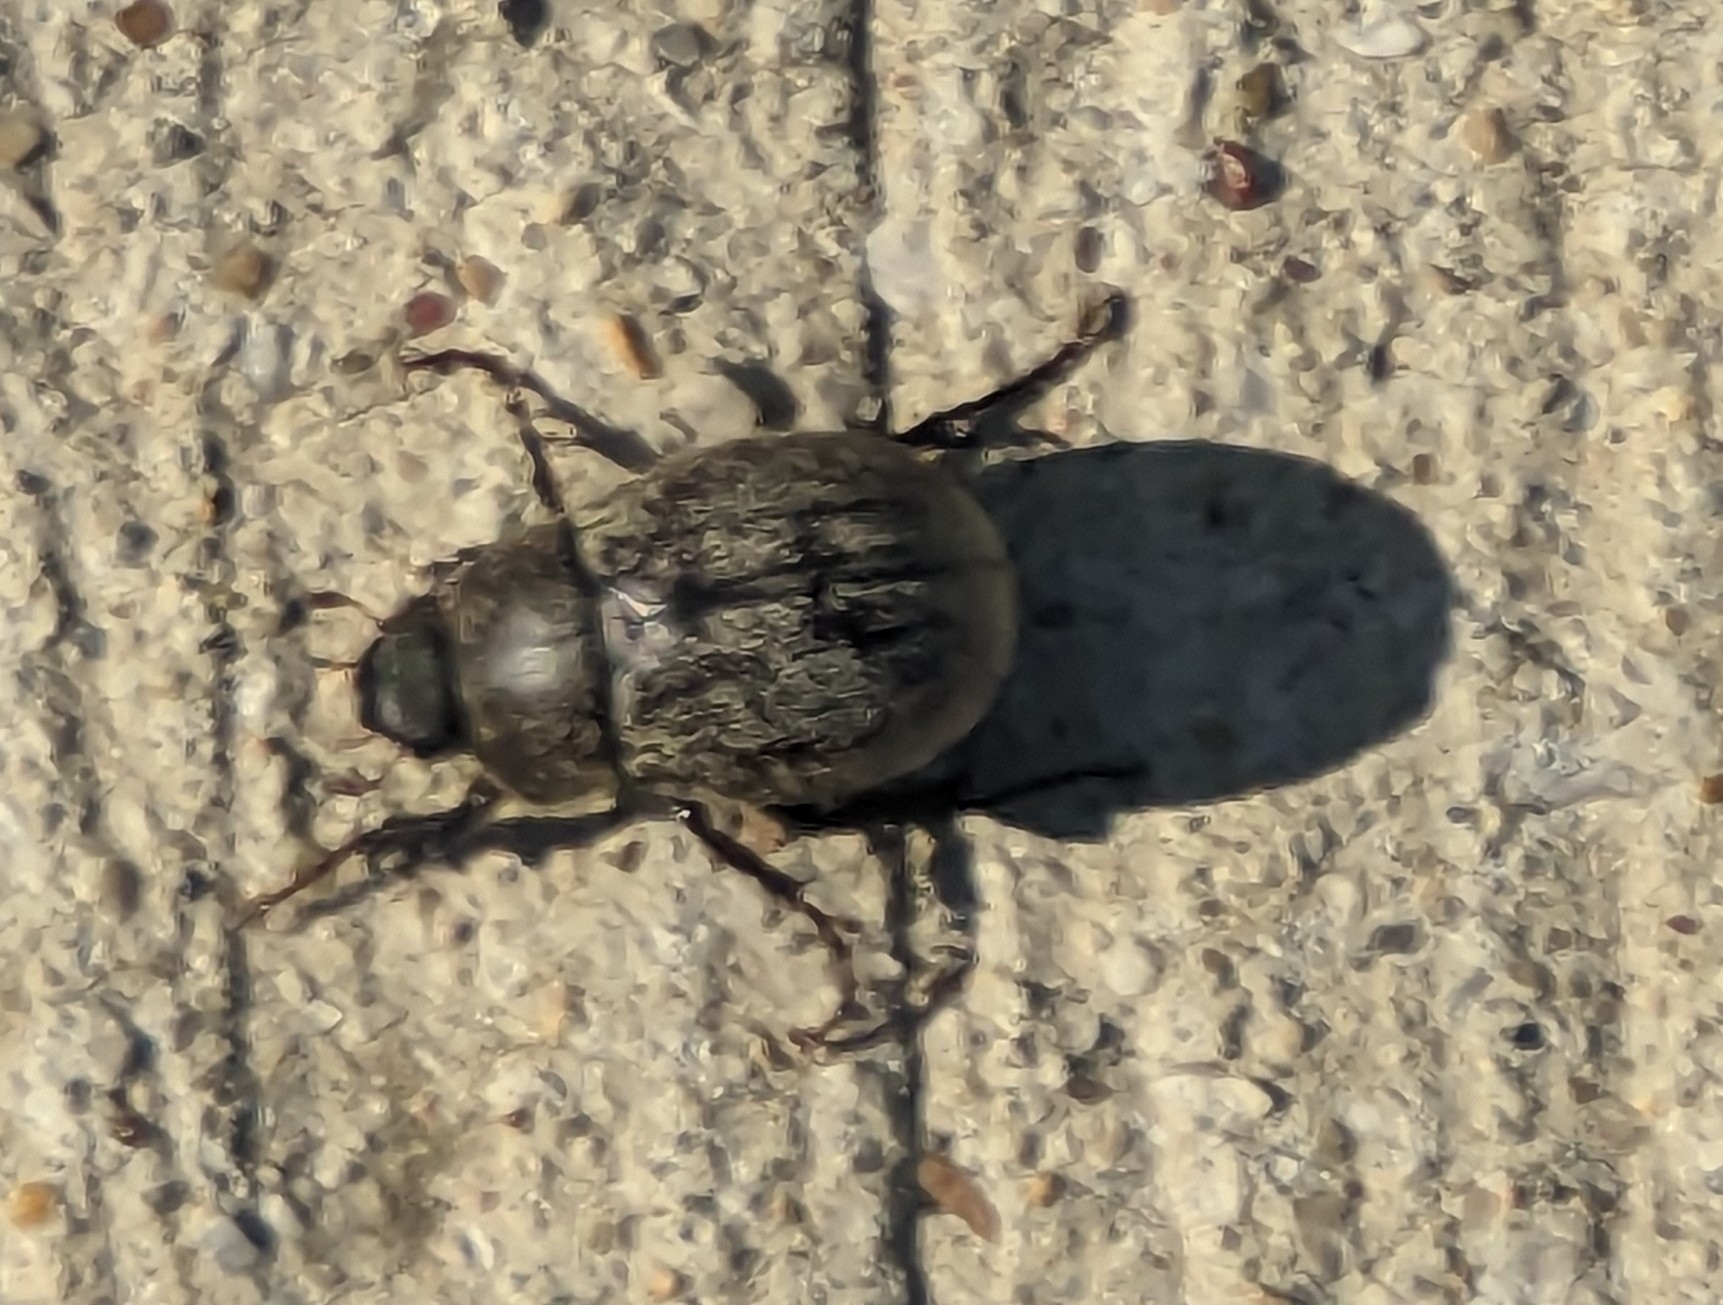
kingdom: Animalia
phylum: Arthropoda
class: Insecta
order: Coleoptera
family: Scarabaeidae
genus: Phyllophaga
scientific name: Phyllophaga lanceolata
